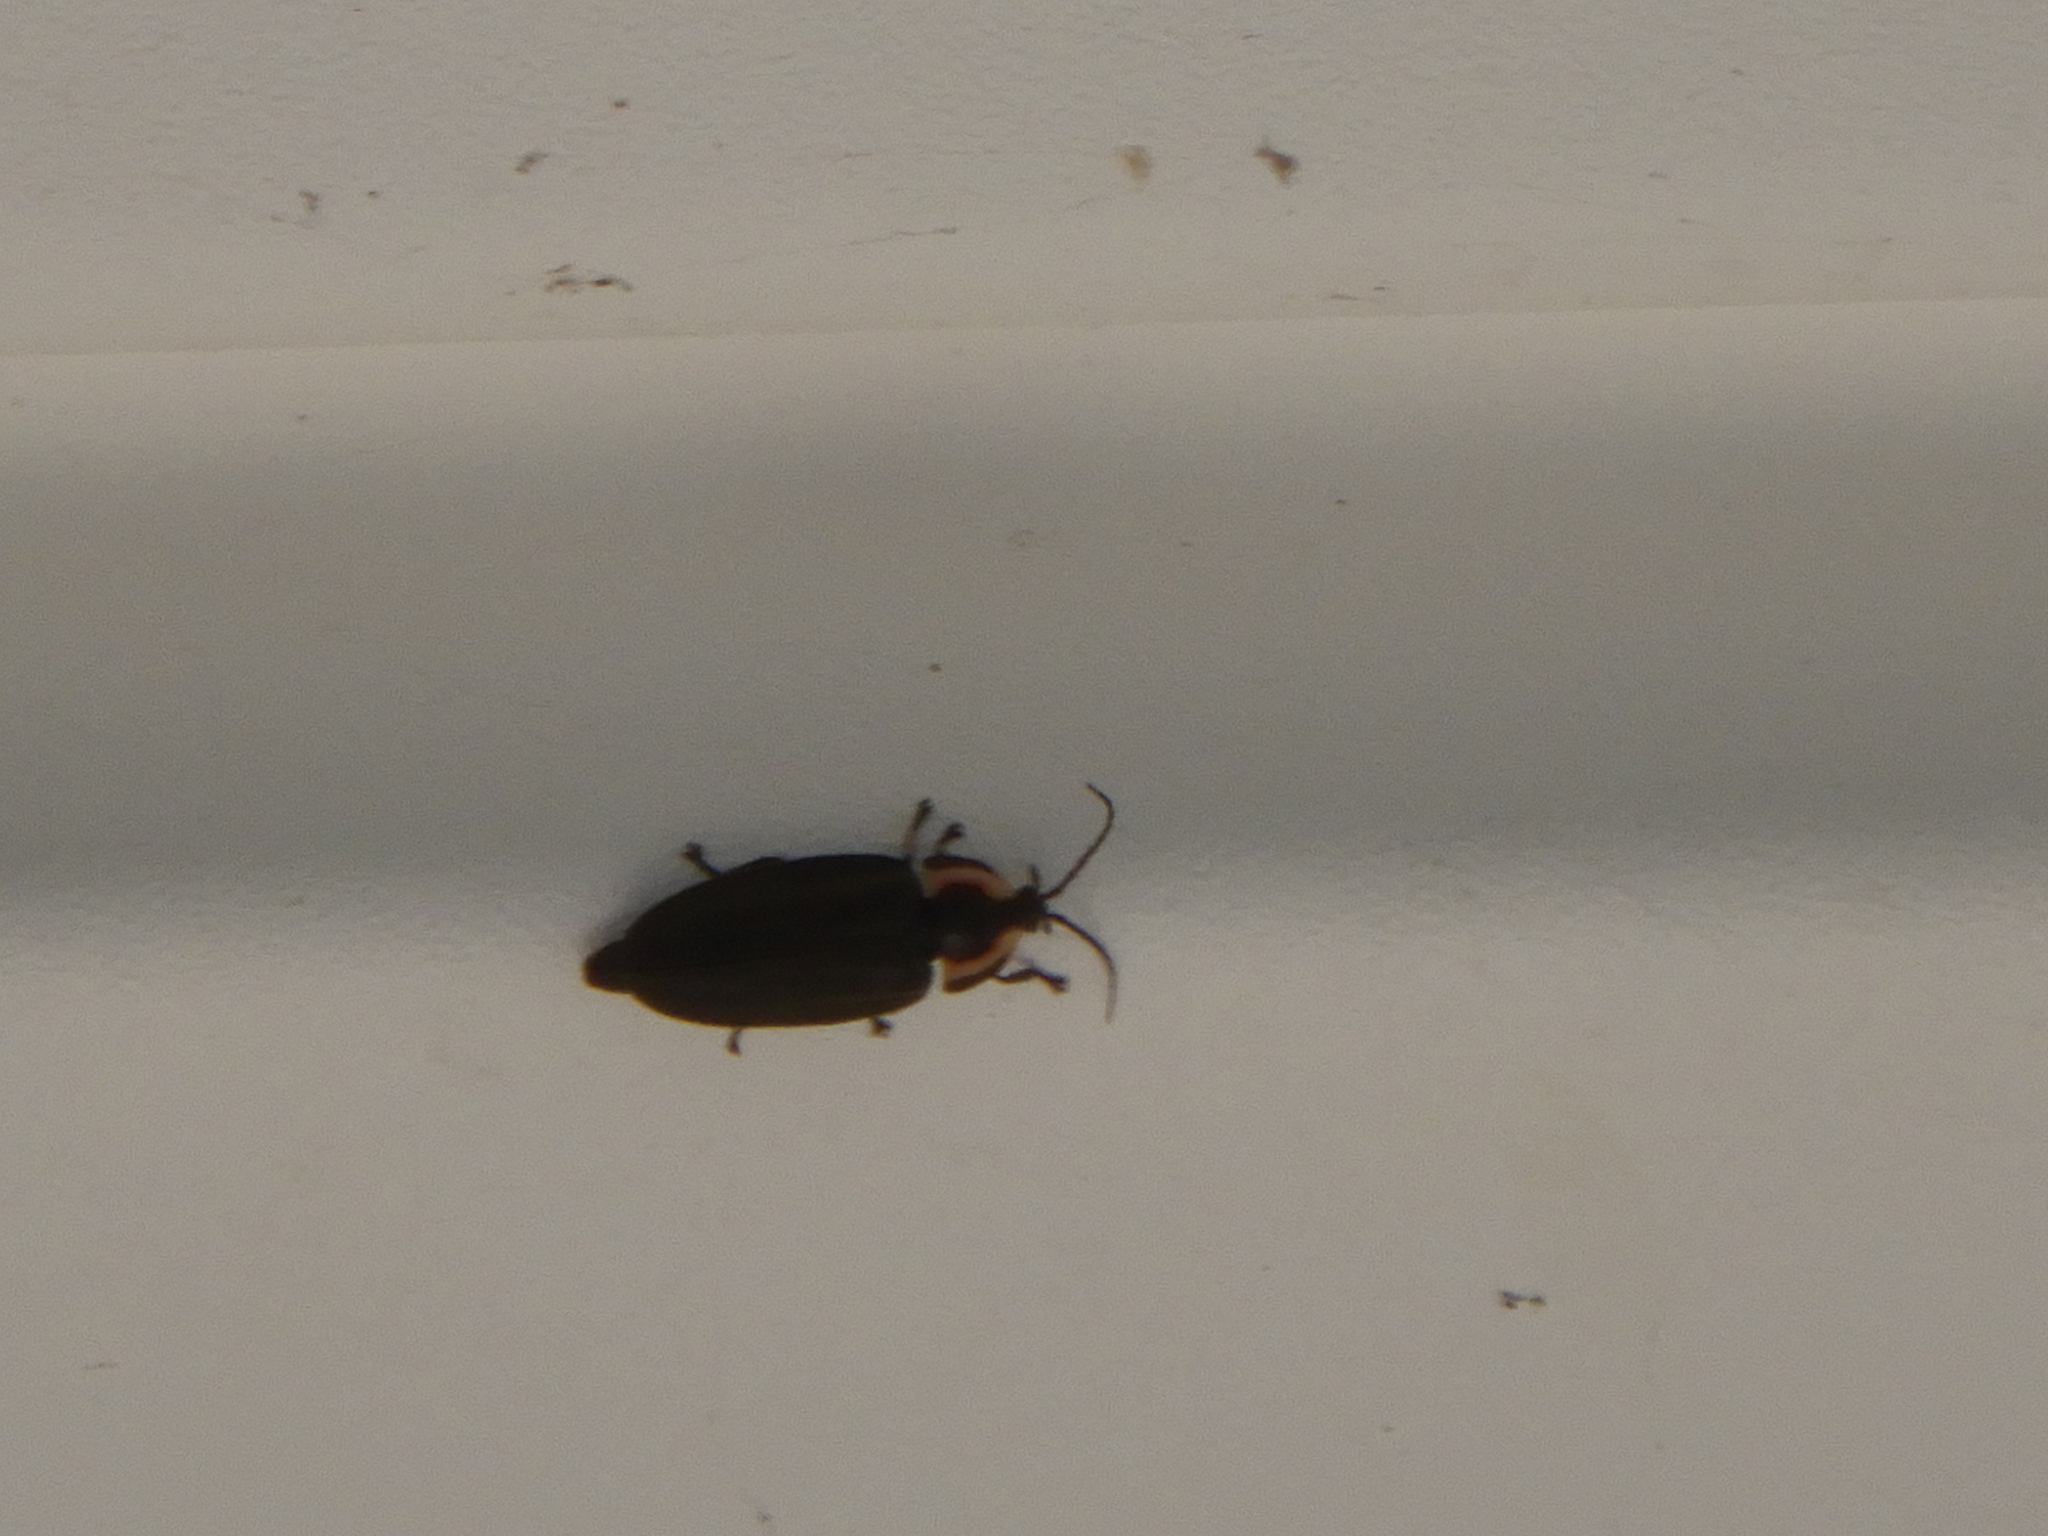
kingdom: Animalia
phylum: Arthropoda
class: Insecta
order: Coleoptera
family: Lampyridae
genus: Photinus
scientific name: Photinus corrusca
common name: Winter firefly
